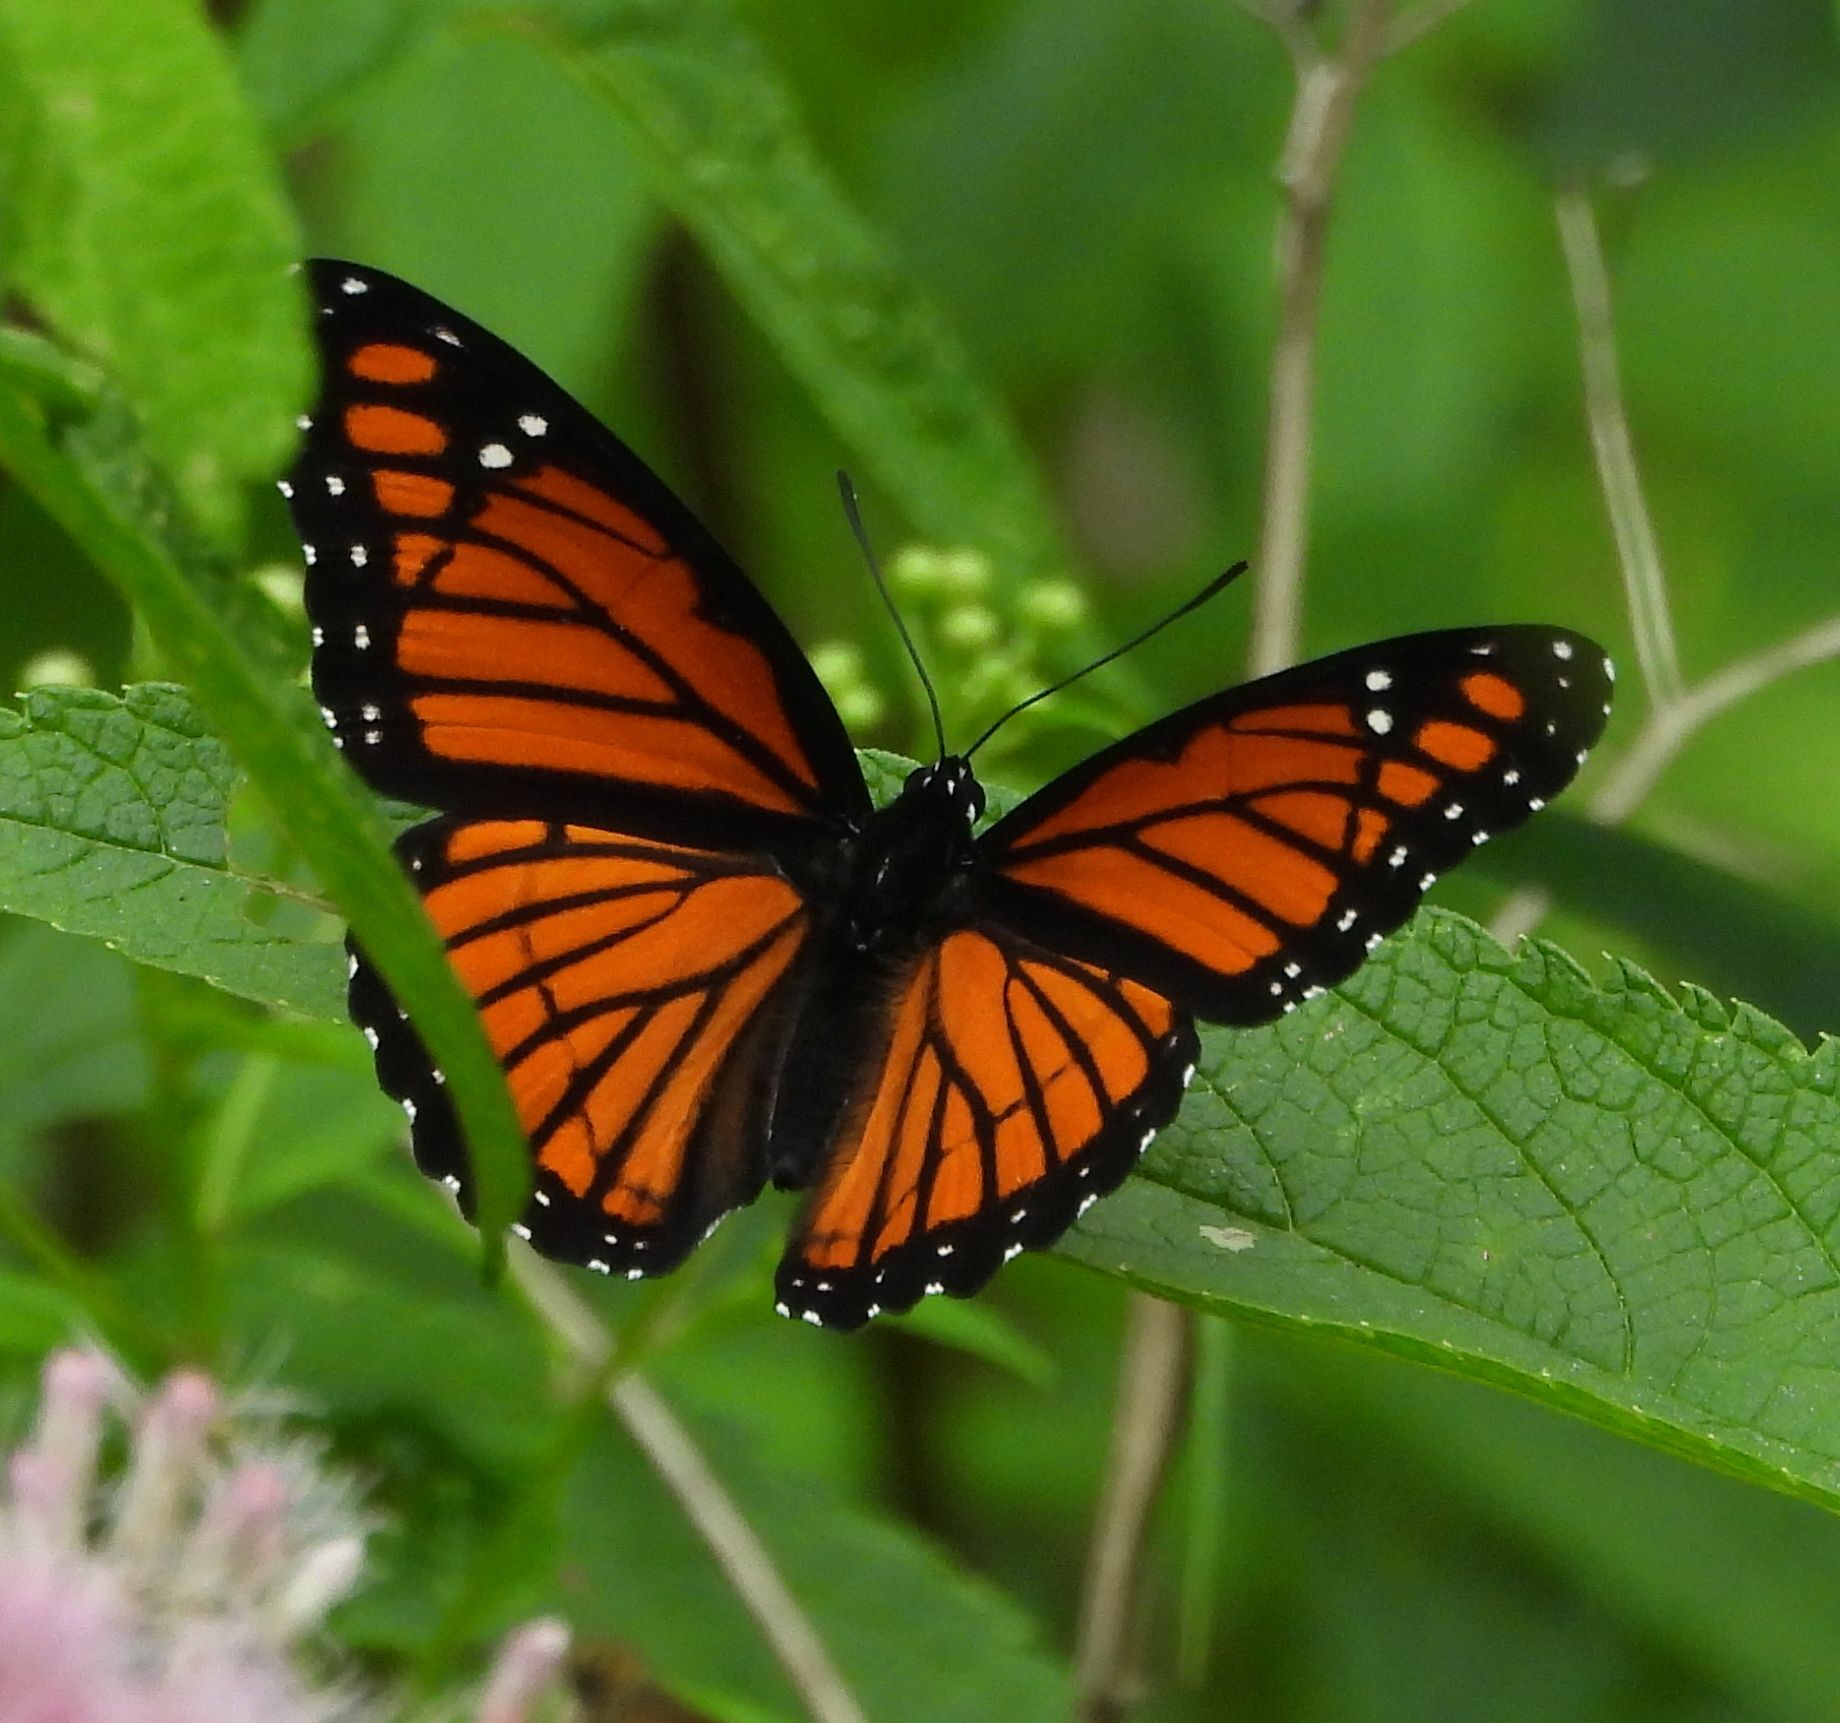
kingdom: Animalia
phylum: Arthropoda
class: Insecta
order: Lepidoptera
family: Nymphalidae
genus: Limenitis
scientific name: Limenitis archippus
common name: Viceroy
